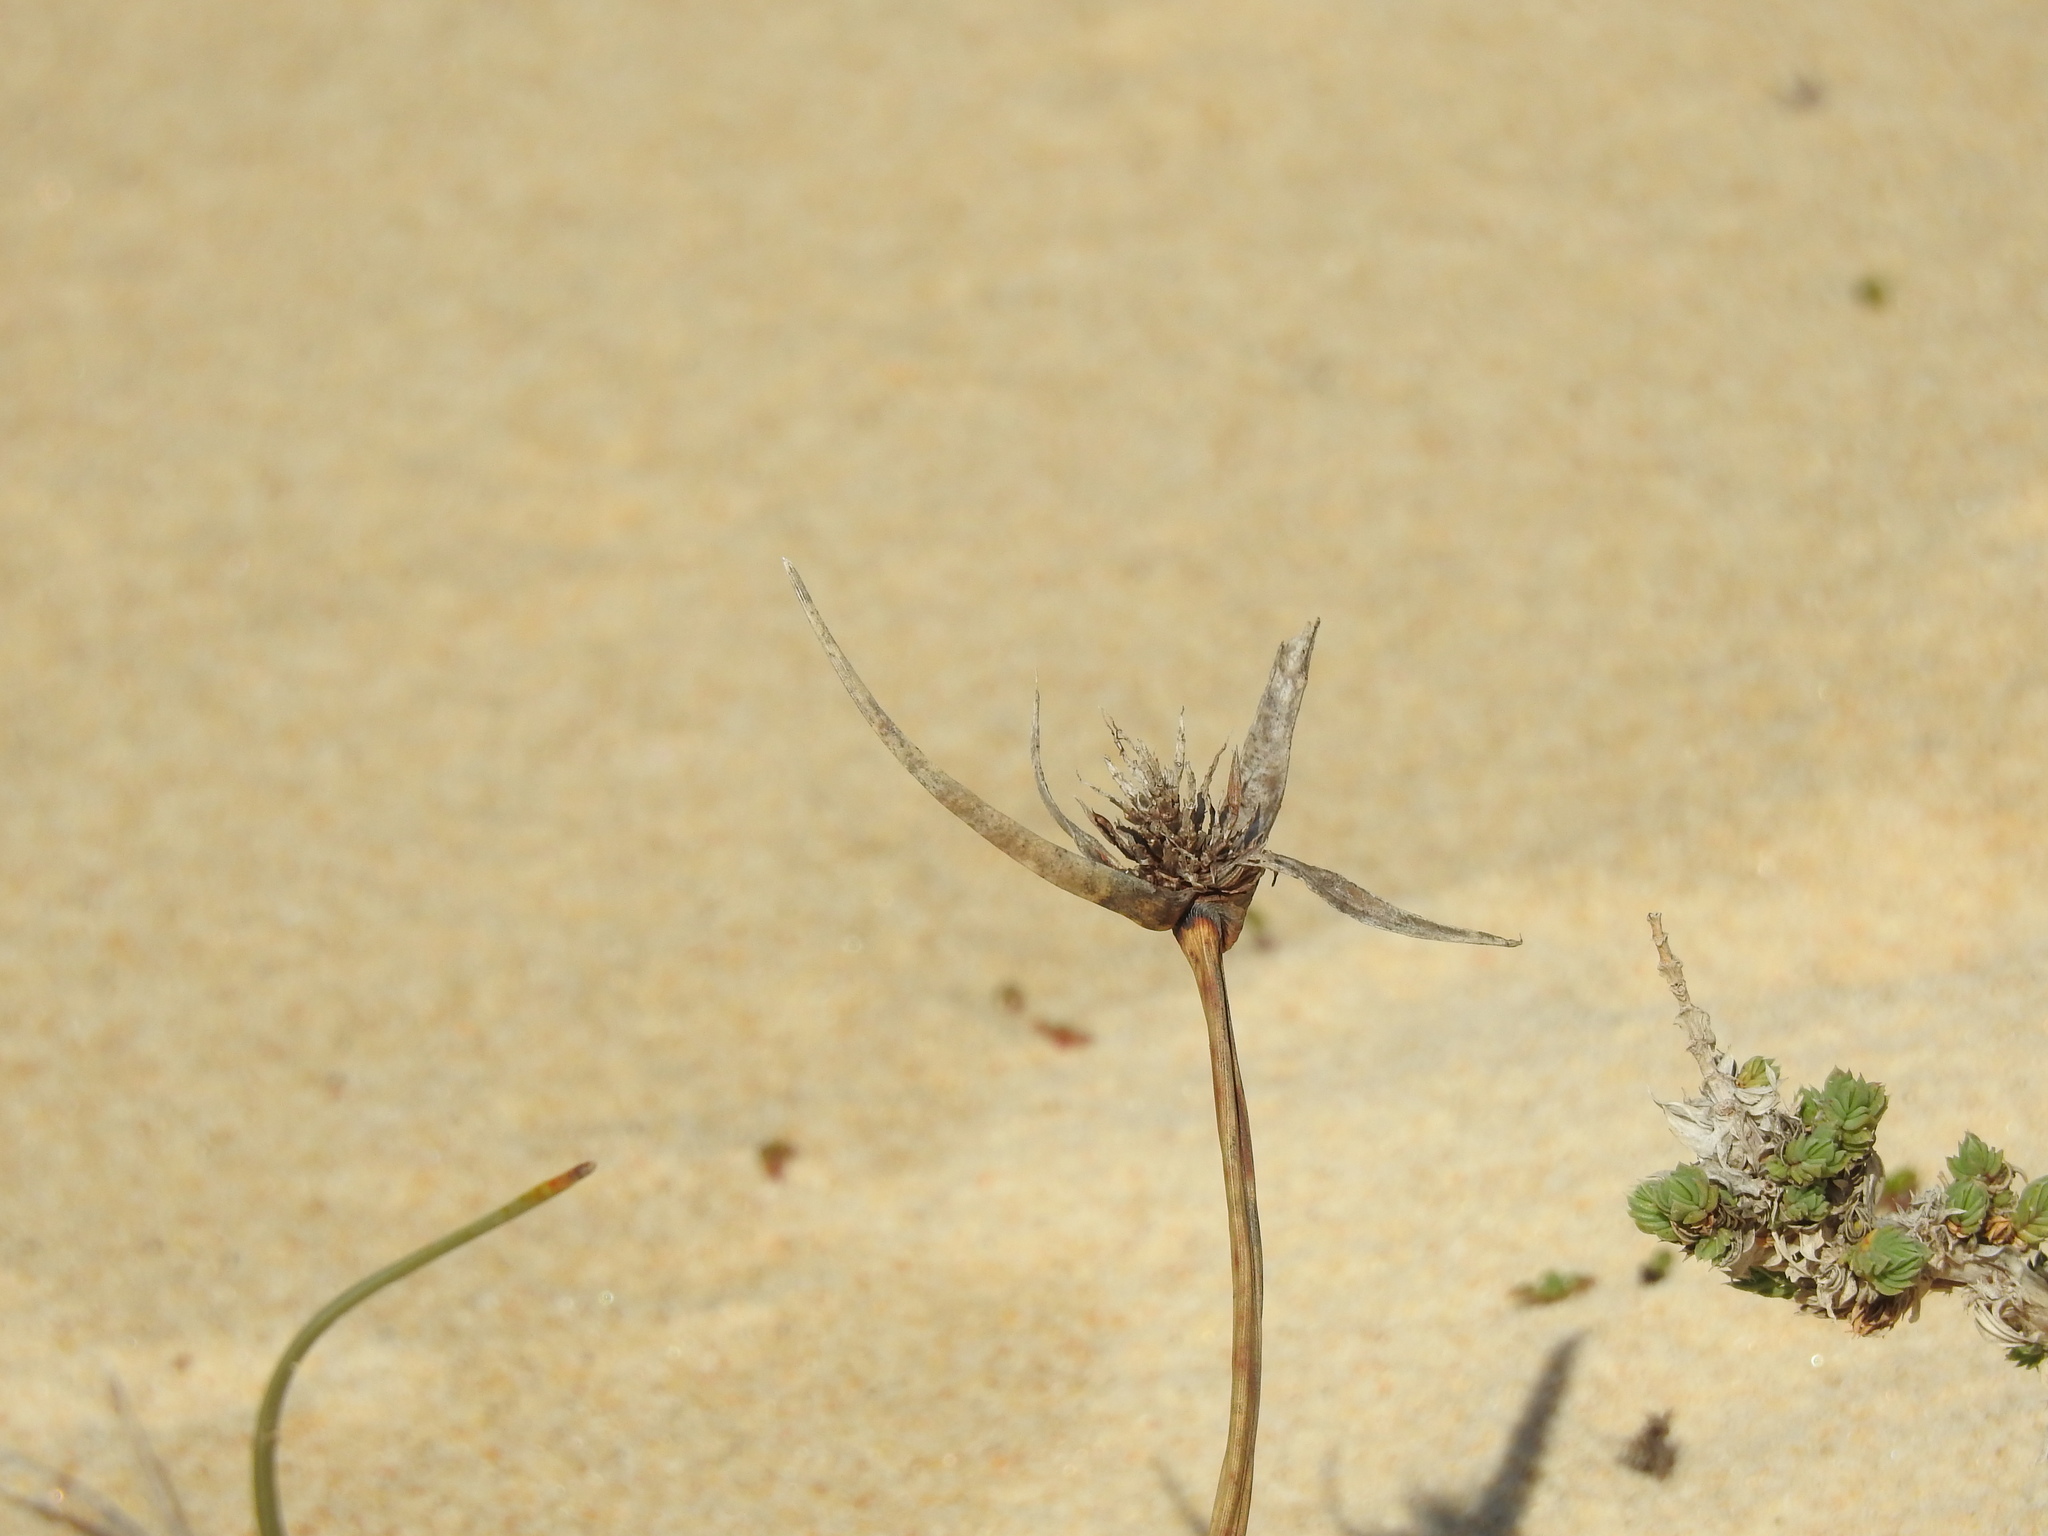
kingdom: Plantae
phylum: Tracheophyta
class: Liliopsida
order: Poales
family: Cyperaceae
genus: Cyperus
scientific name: Cyperus capitatus
